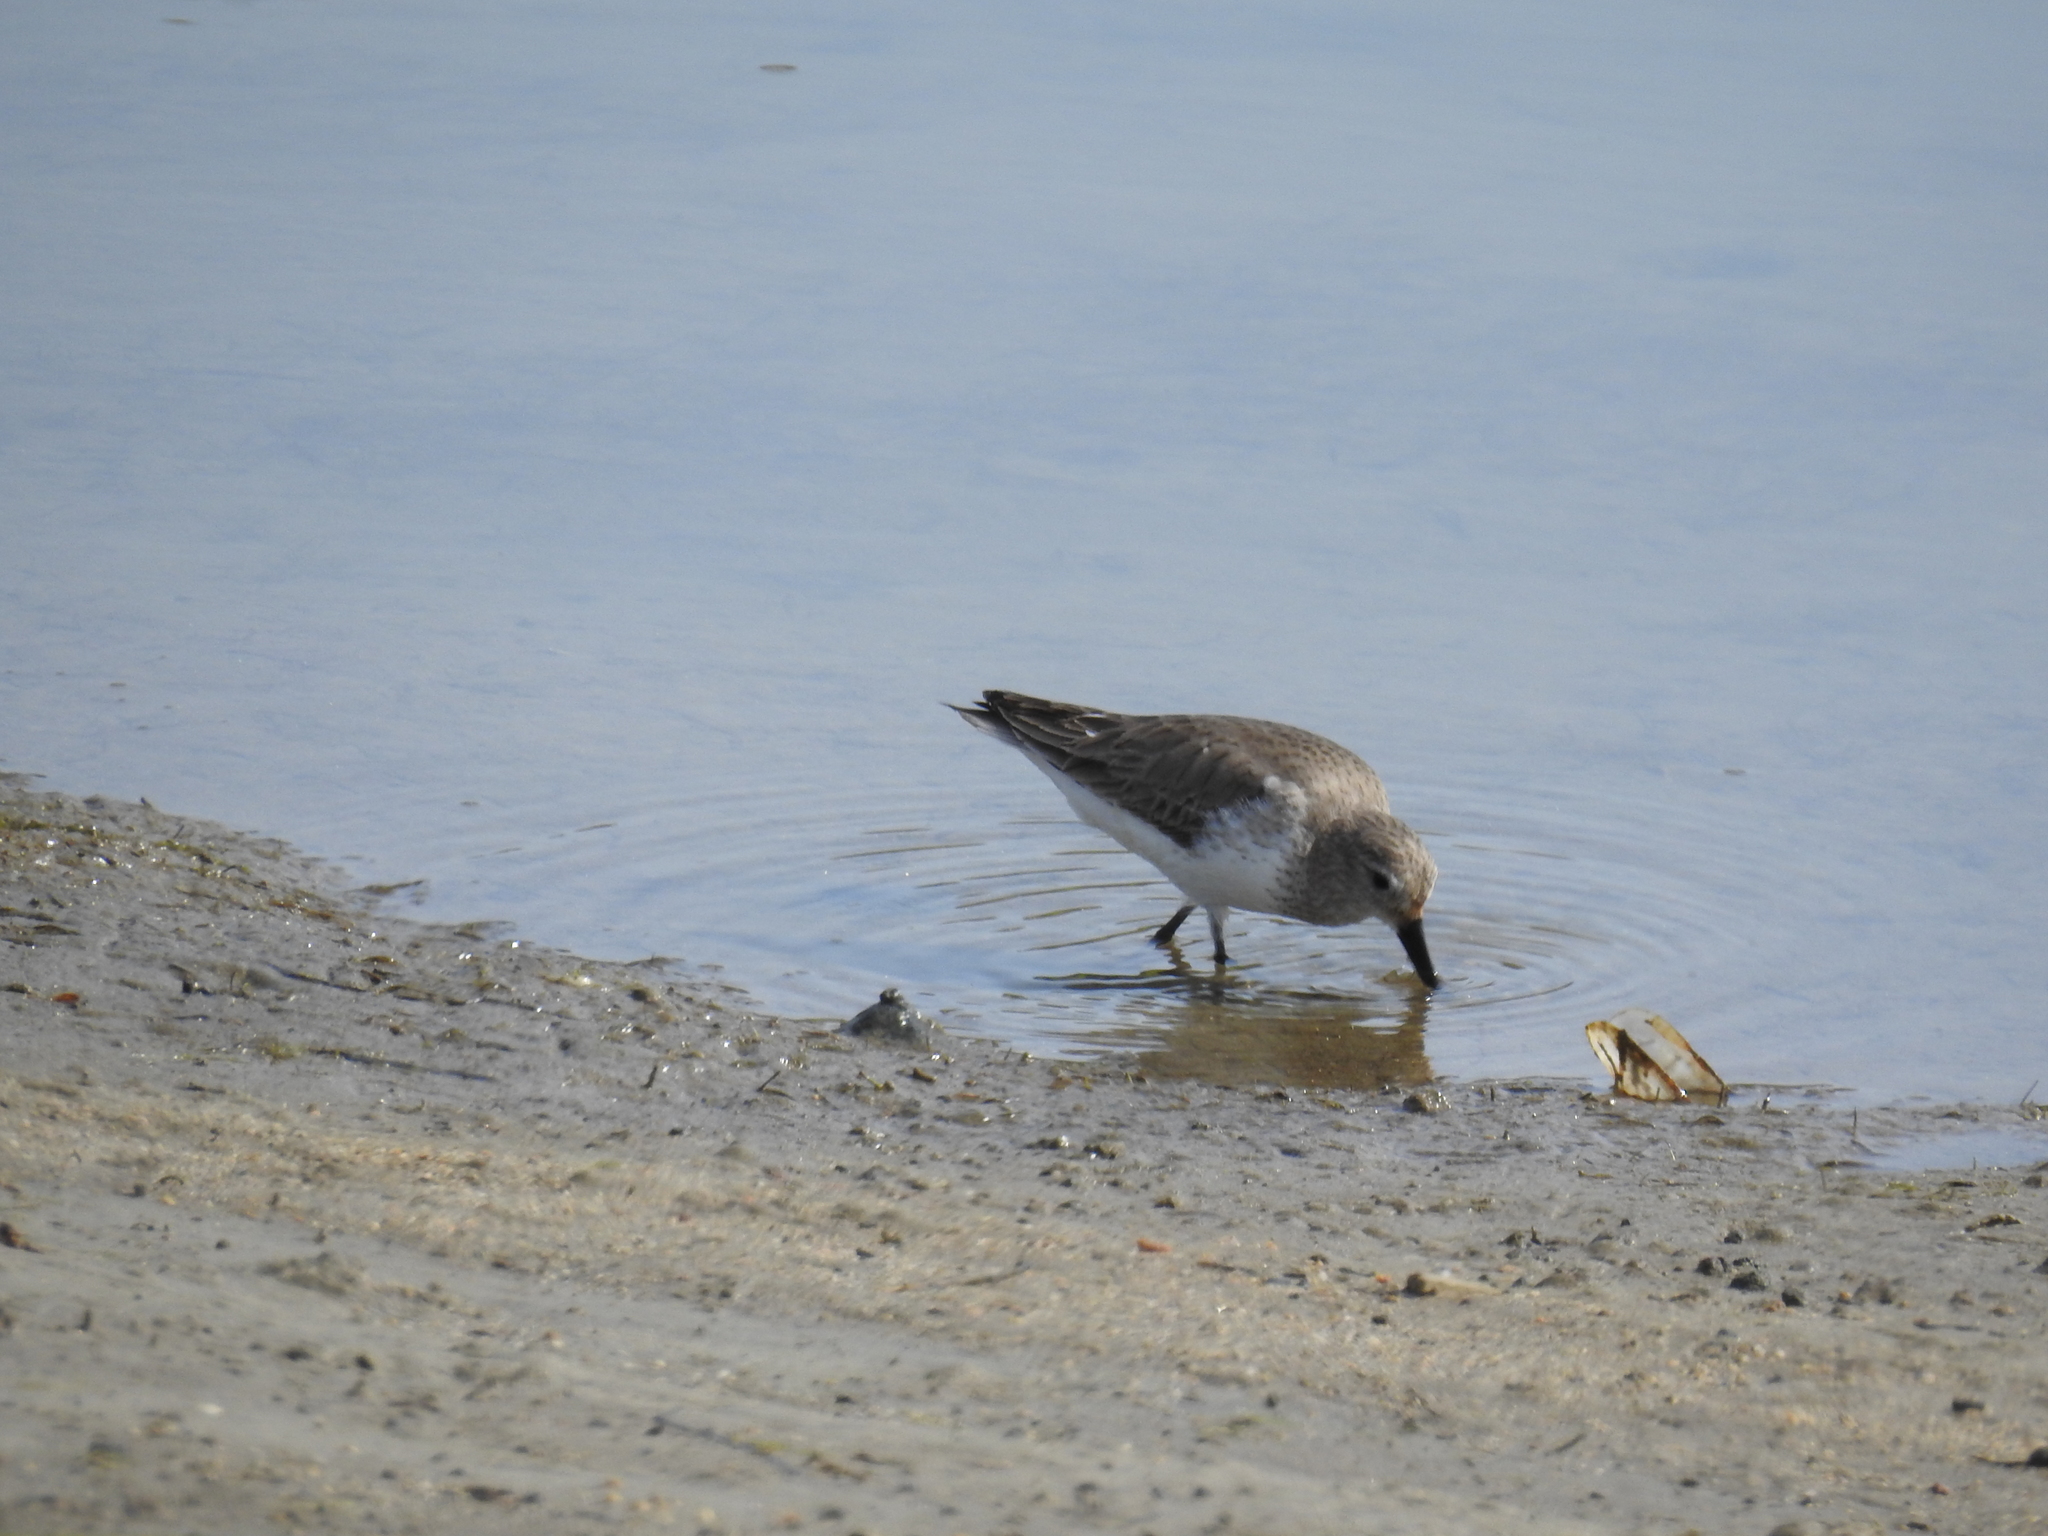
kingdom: Animalia
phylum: Chordata
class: Aves
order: Charadriiformes
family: Scolopacidae
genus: Calidris
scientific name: Calidris mauri
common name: Western sandpiper
